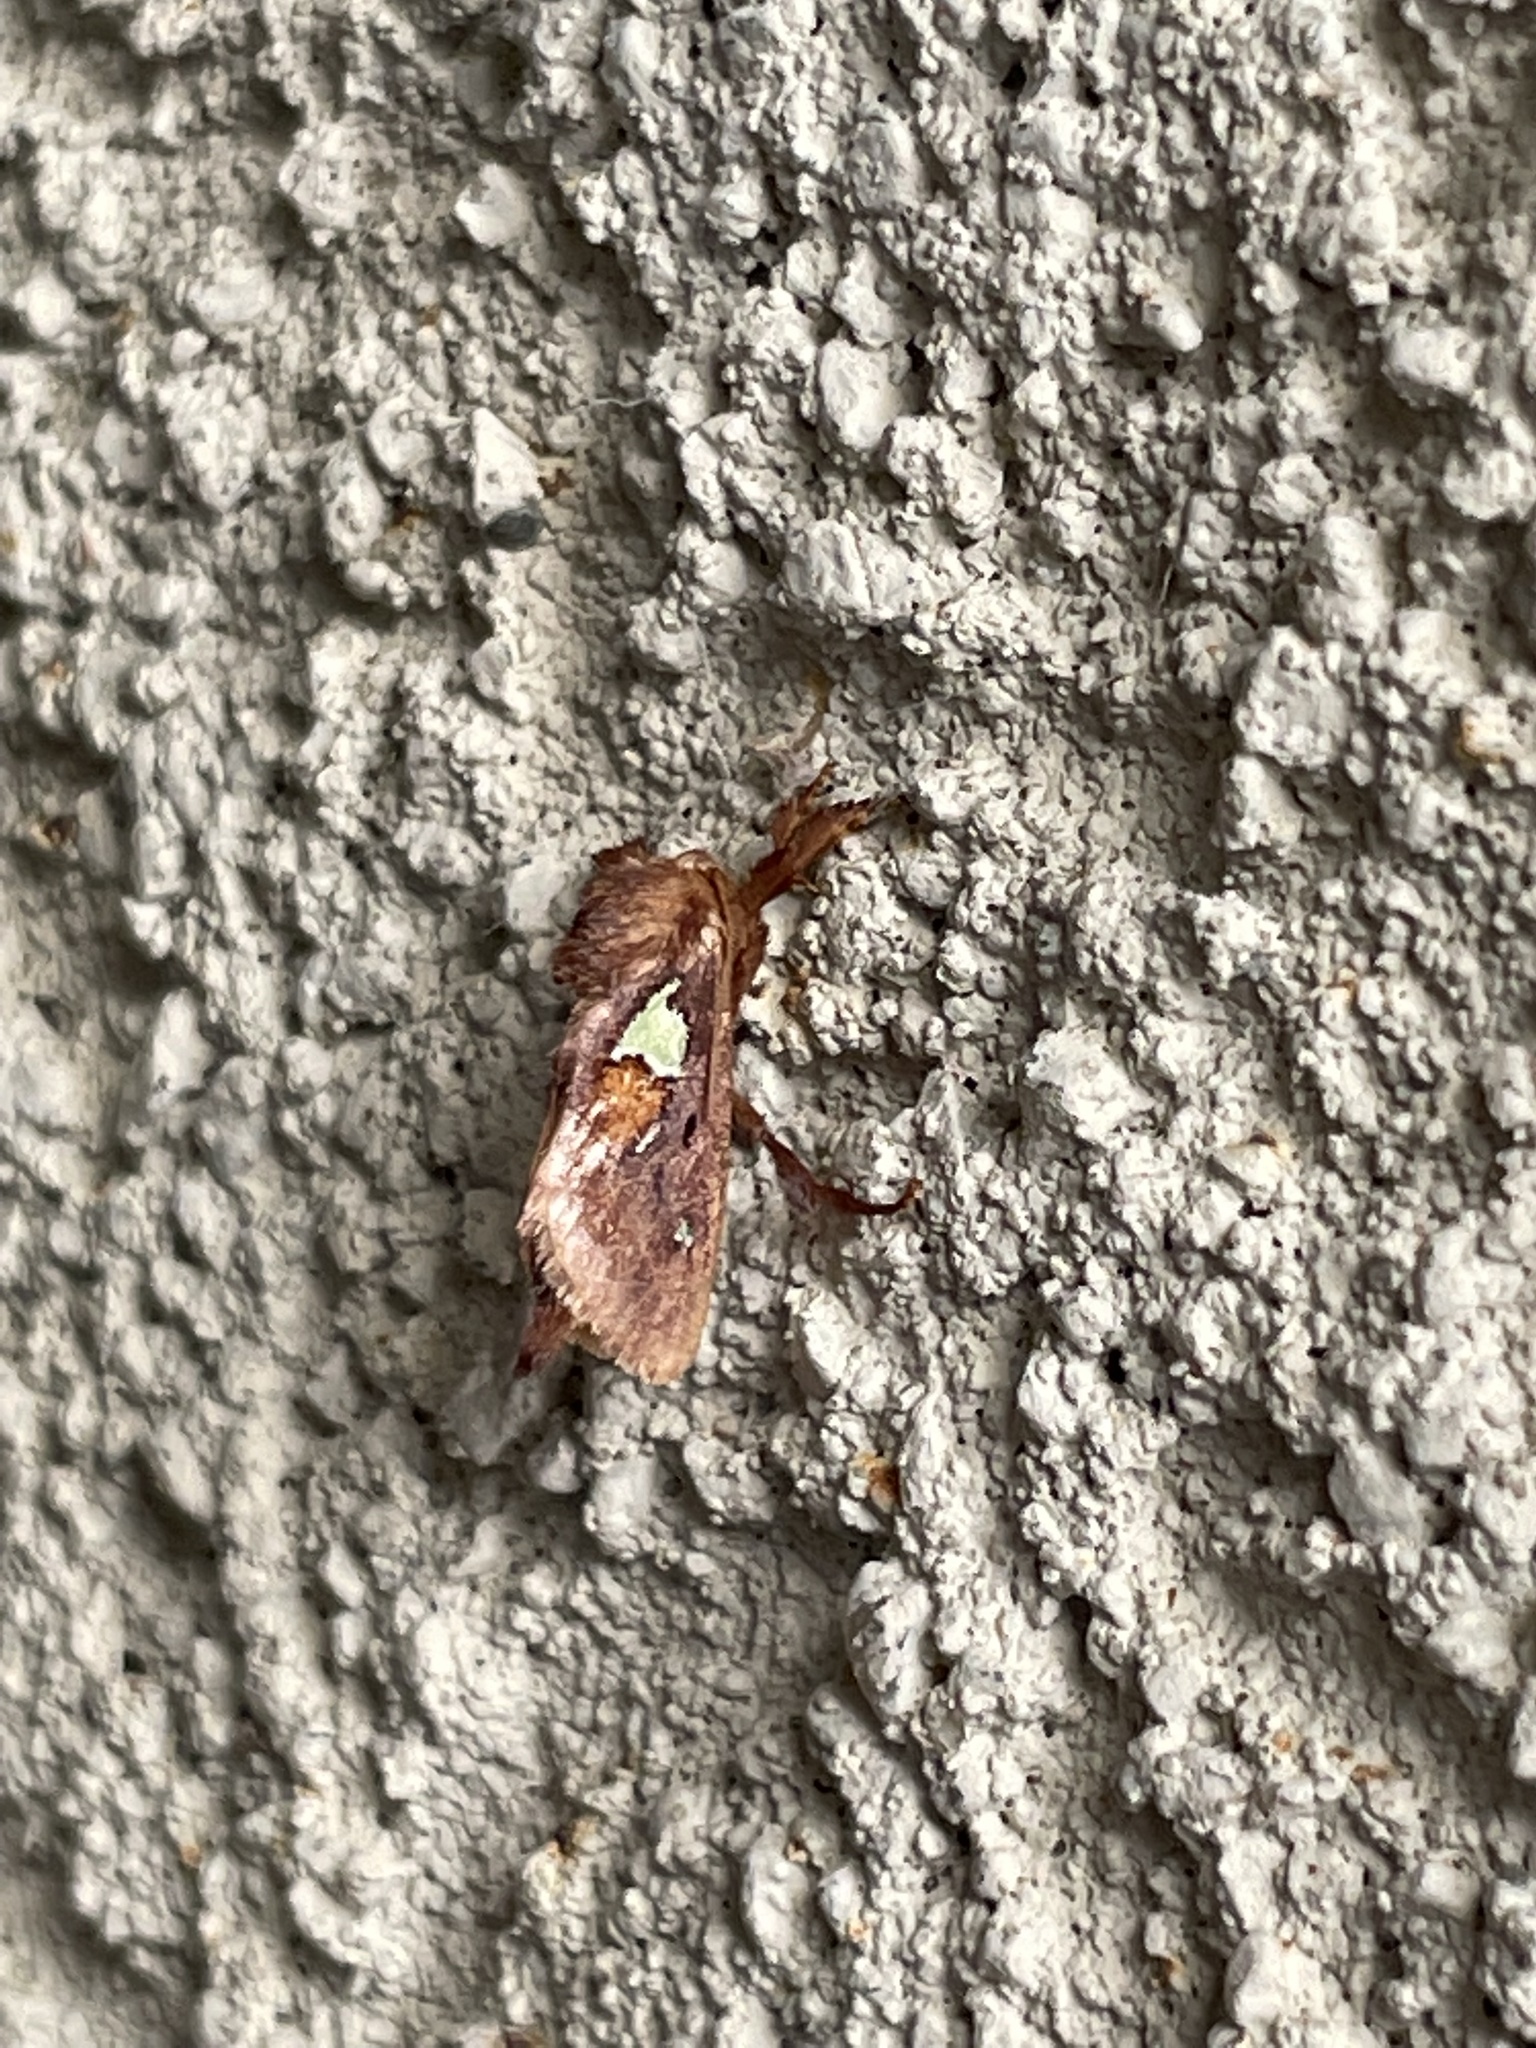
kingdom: Animalia
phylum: Arthropoda
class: Insecta
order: Lepidoptera
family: Limacodidae
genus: Euclea
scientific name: Euclea delphinii
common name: Spiny oak-slug moth
